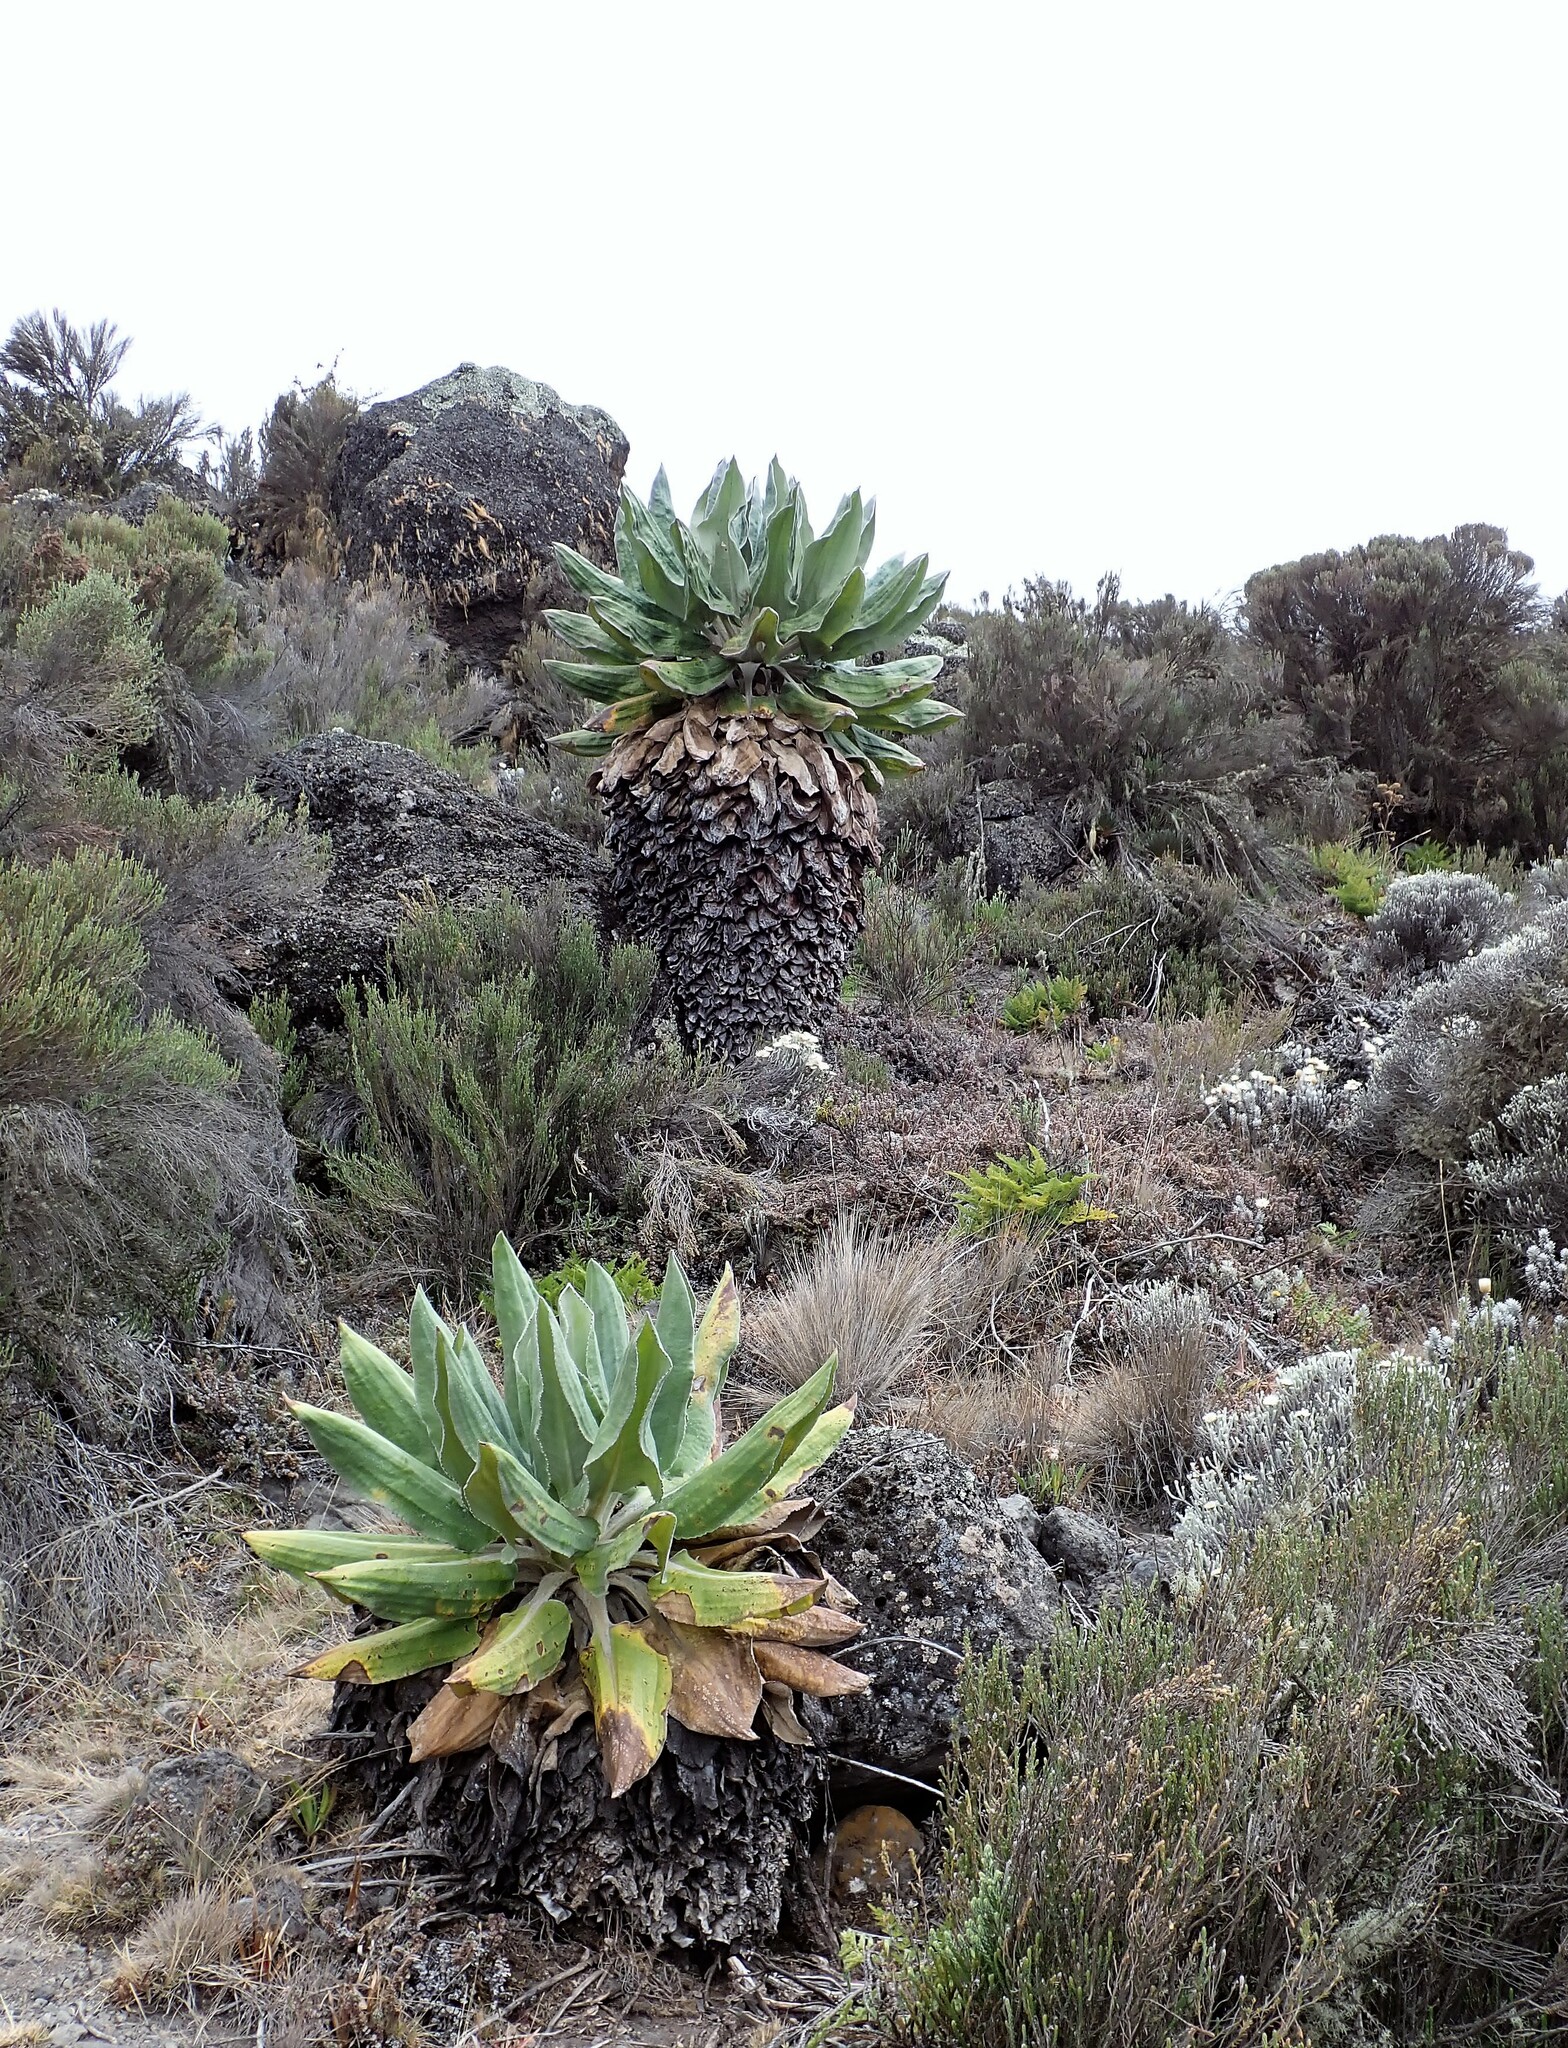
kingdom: Plantae
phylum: Tracheophyta
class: Magnoliopsida
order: Asterales
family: Asteraceae
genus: Dendrosenecio
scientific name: Dendrosenecio kilimanjari
